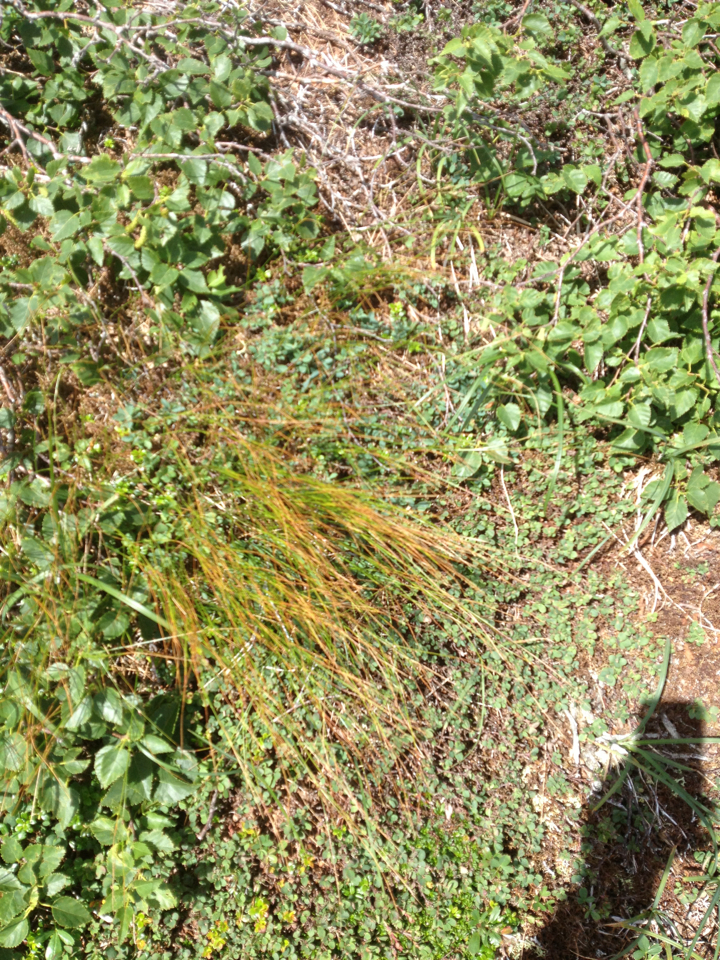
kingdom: Plantae
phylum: Tracheophyta
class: Liliopsida
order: Poales
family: Juncaceae
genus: Oreojuncus
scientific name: Oreojuncus trifidus
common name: Highland rush
